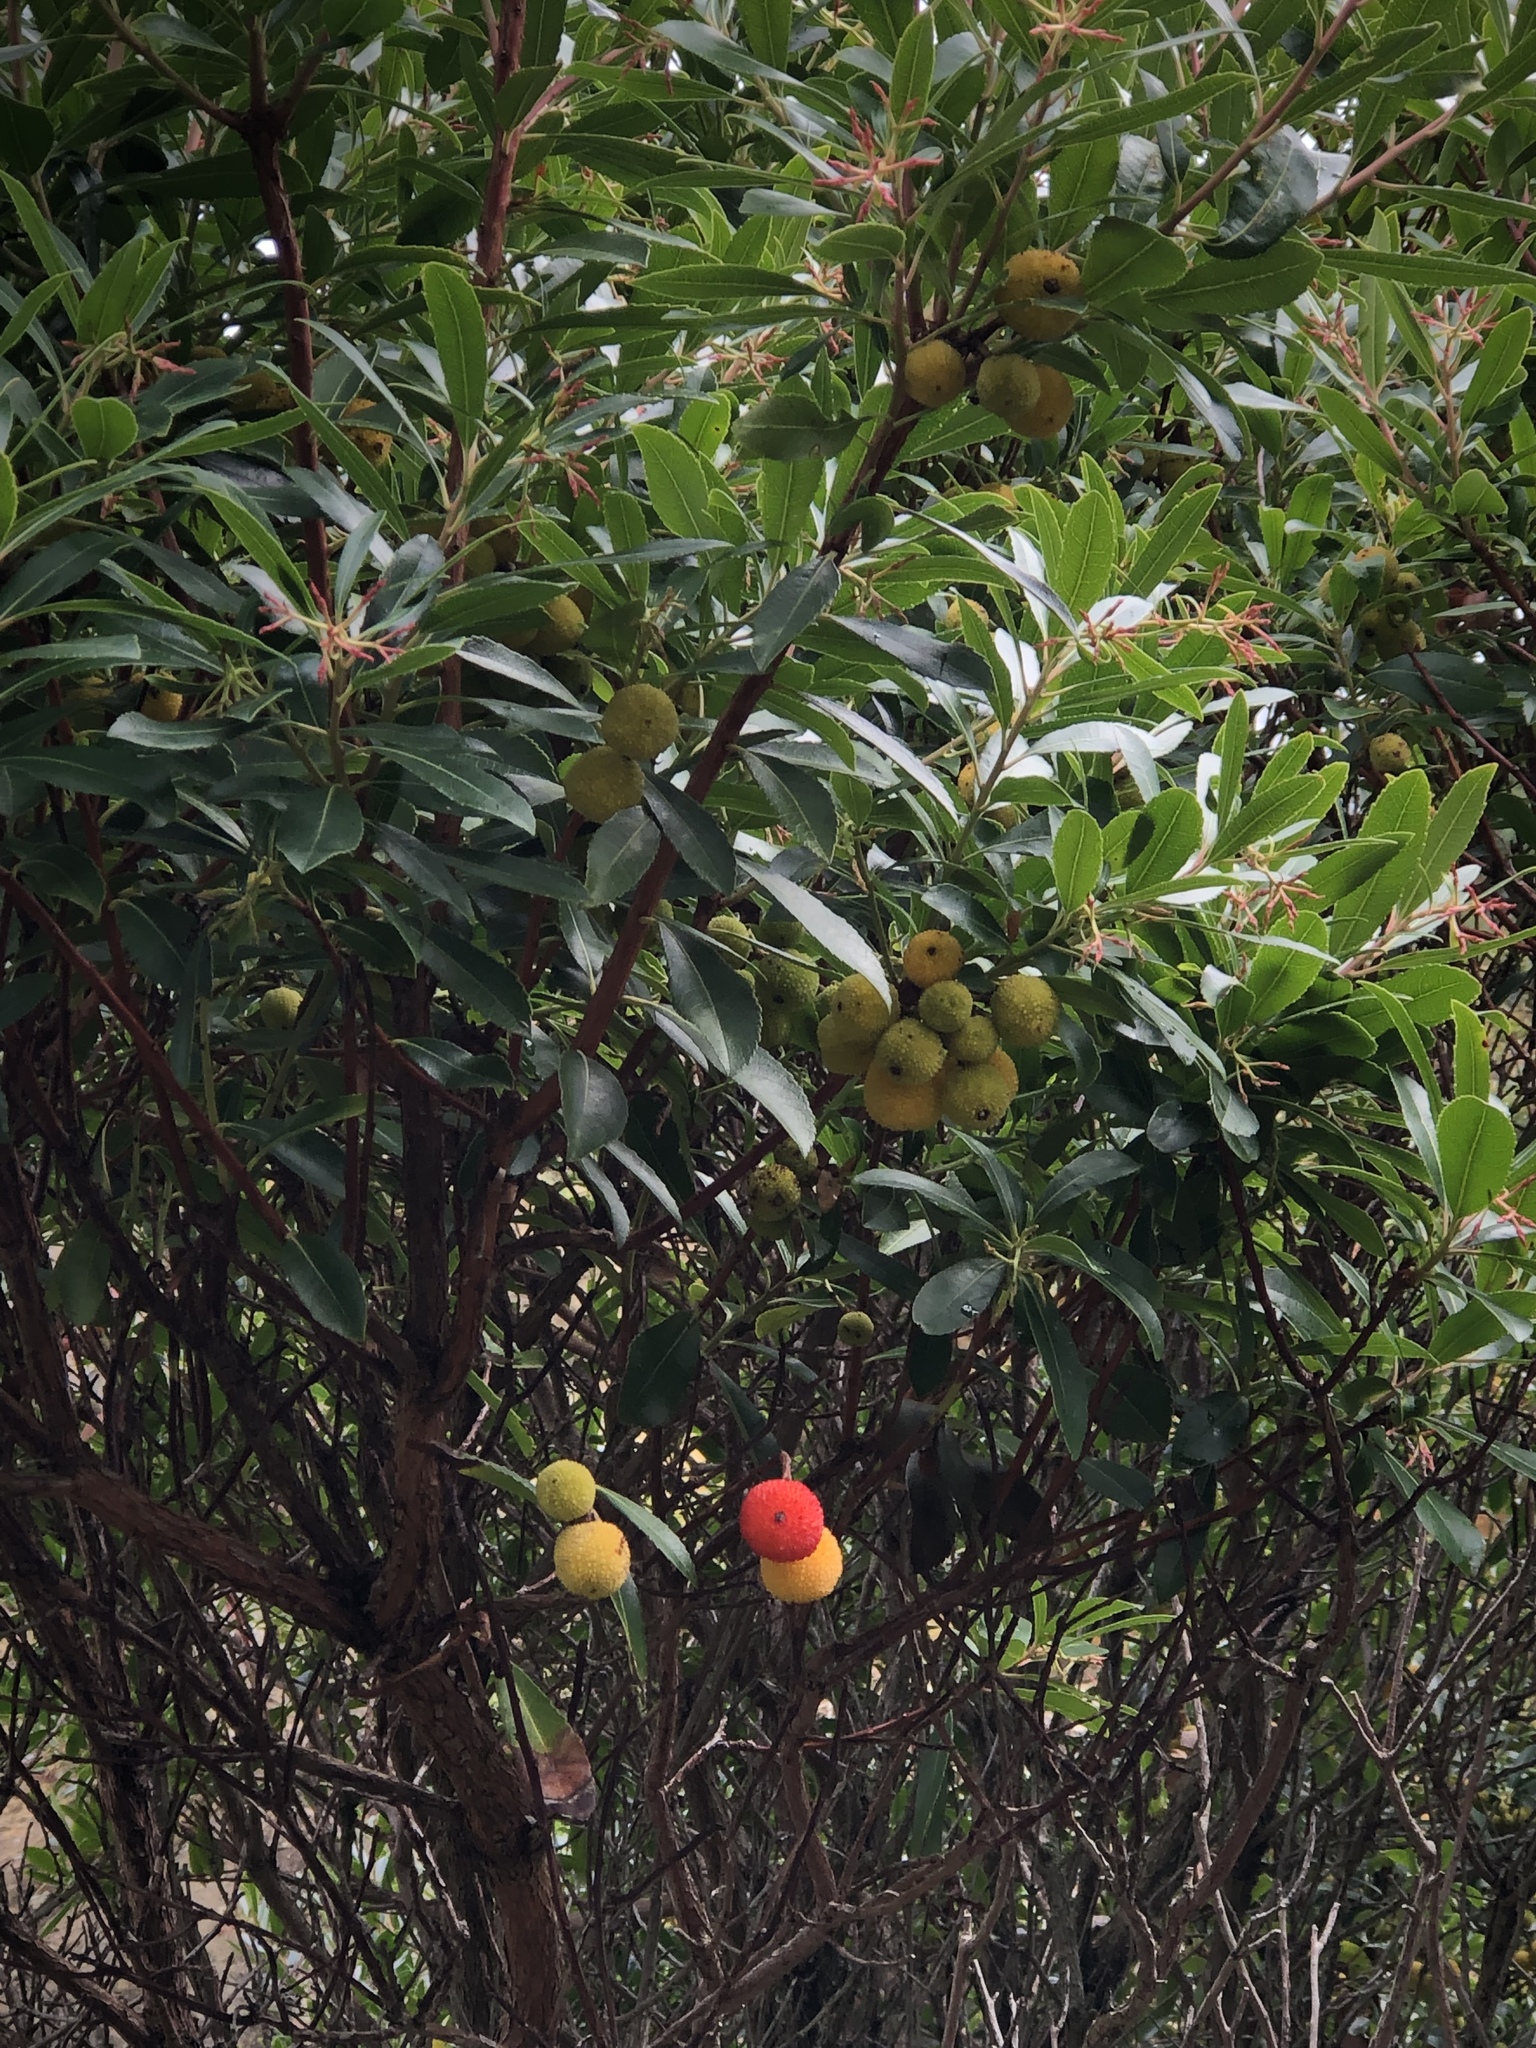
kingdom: Plantae
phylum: Tracheophyta
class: Magnoliopsida
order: Ericales
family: Ericaceae
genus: Arbutus
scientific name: Arbutus unedo
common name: Strawberry-tree
